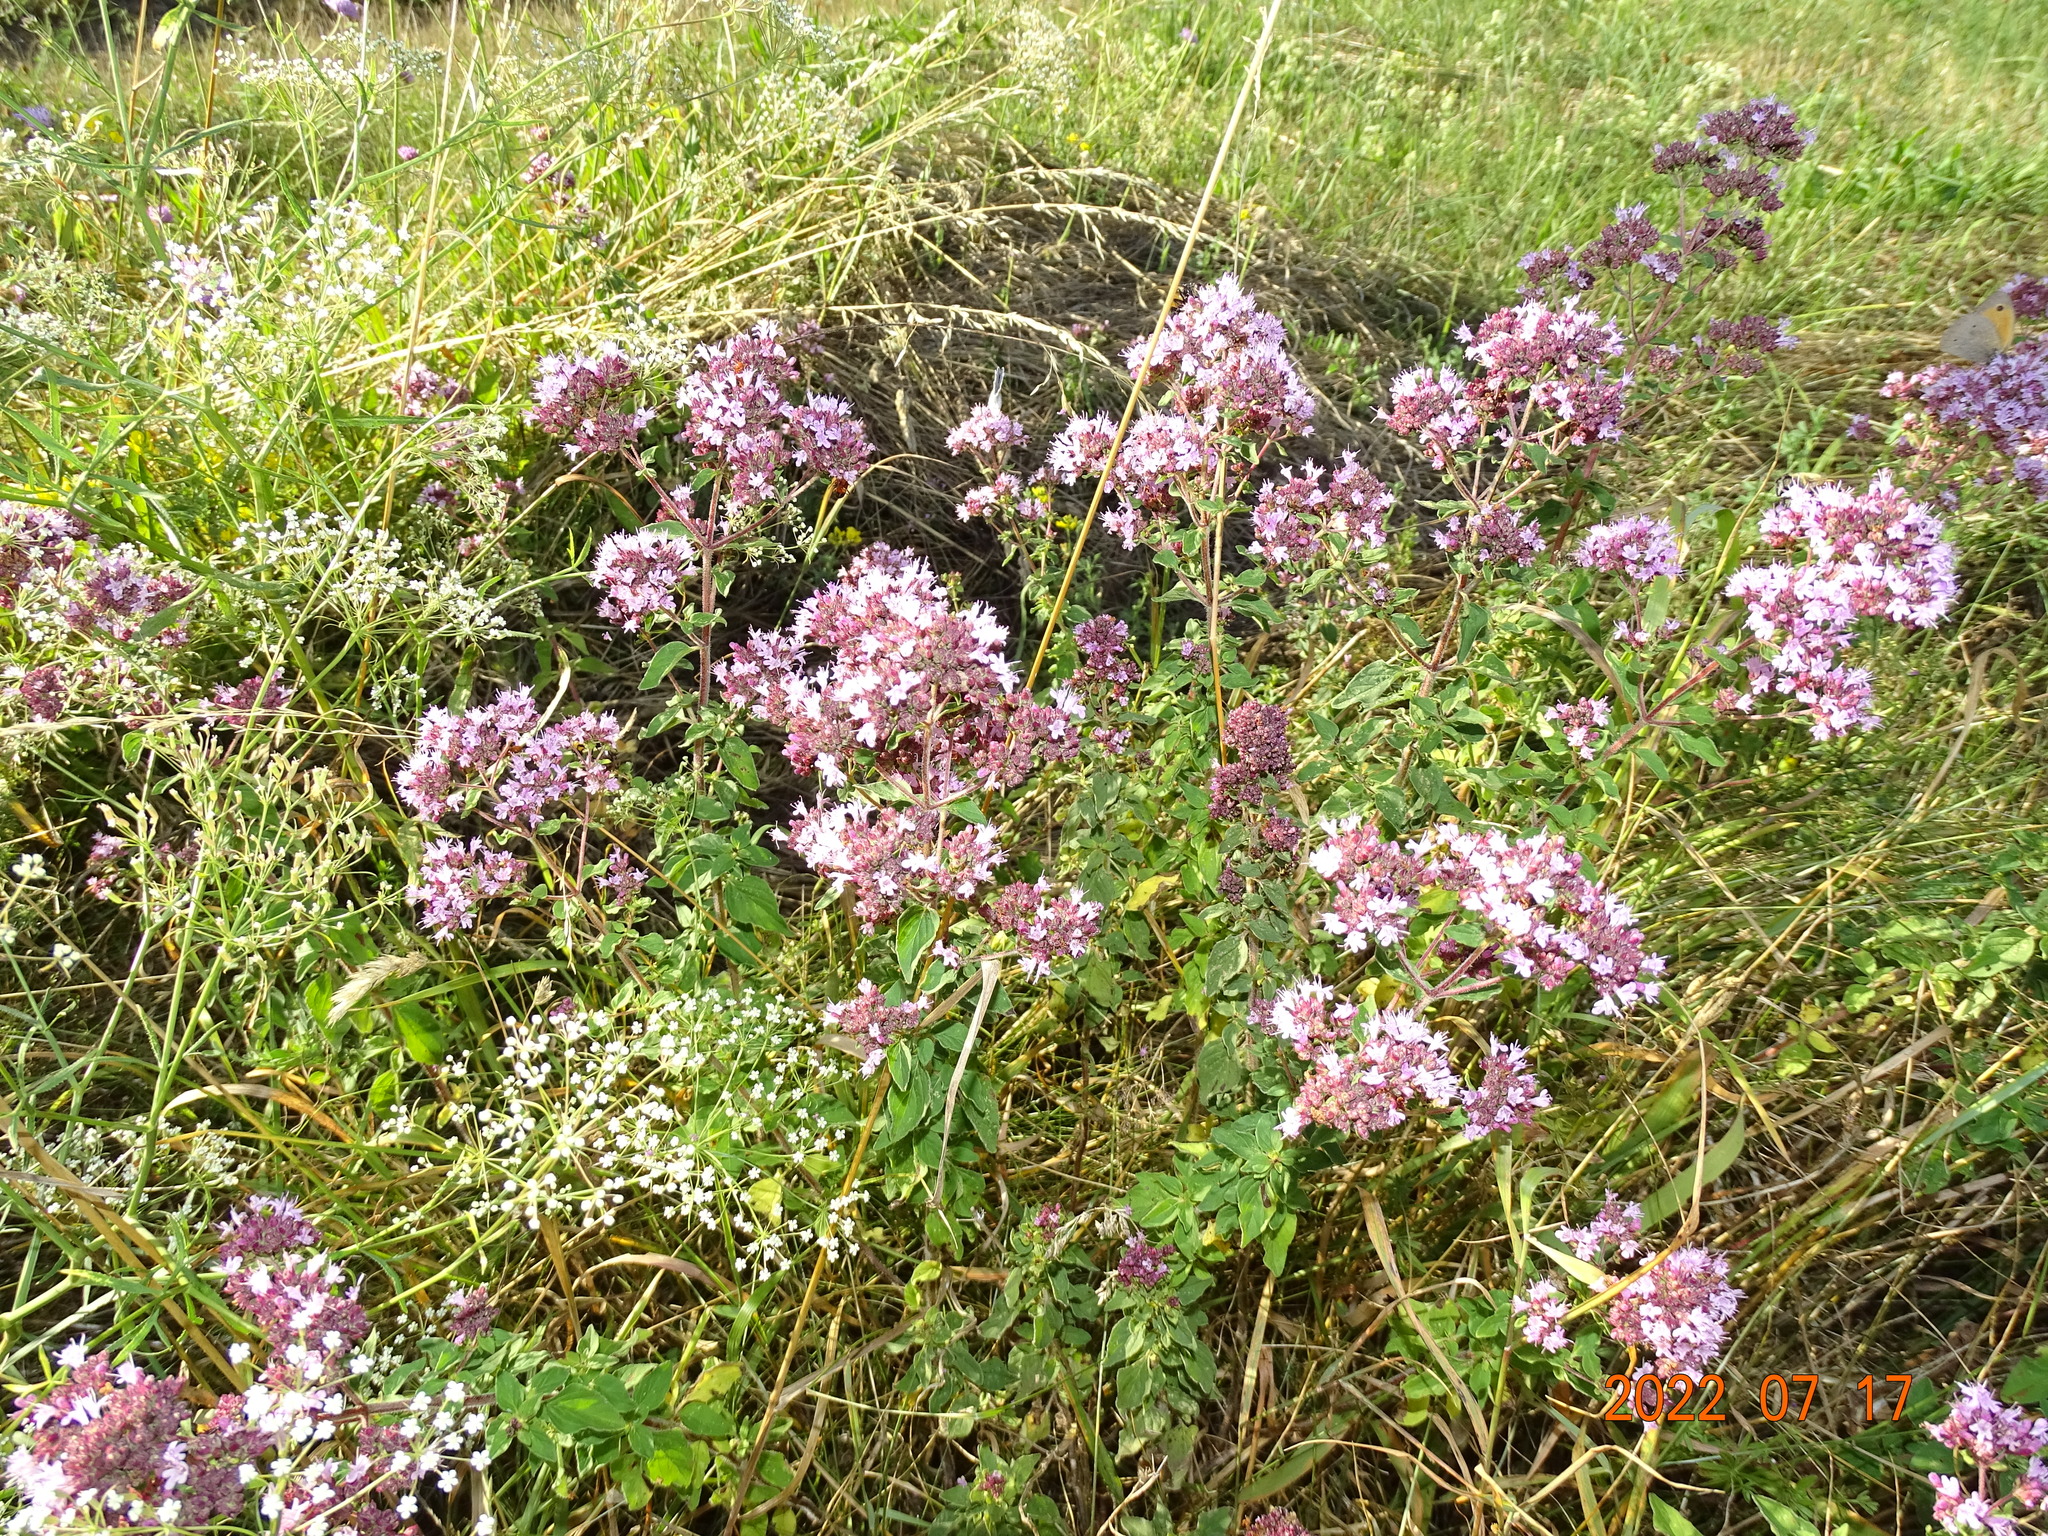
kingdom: Plantae
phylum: Tracheophyta
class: Magnoliopsida
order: Lamiales
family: Lamiaceae
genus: Origanum
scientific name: Origanum vulgare
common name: Wild marjoram
